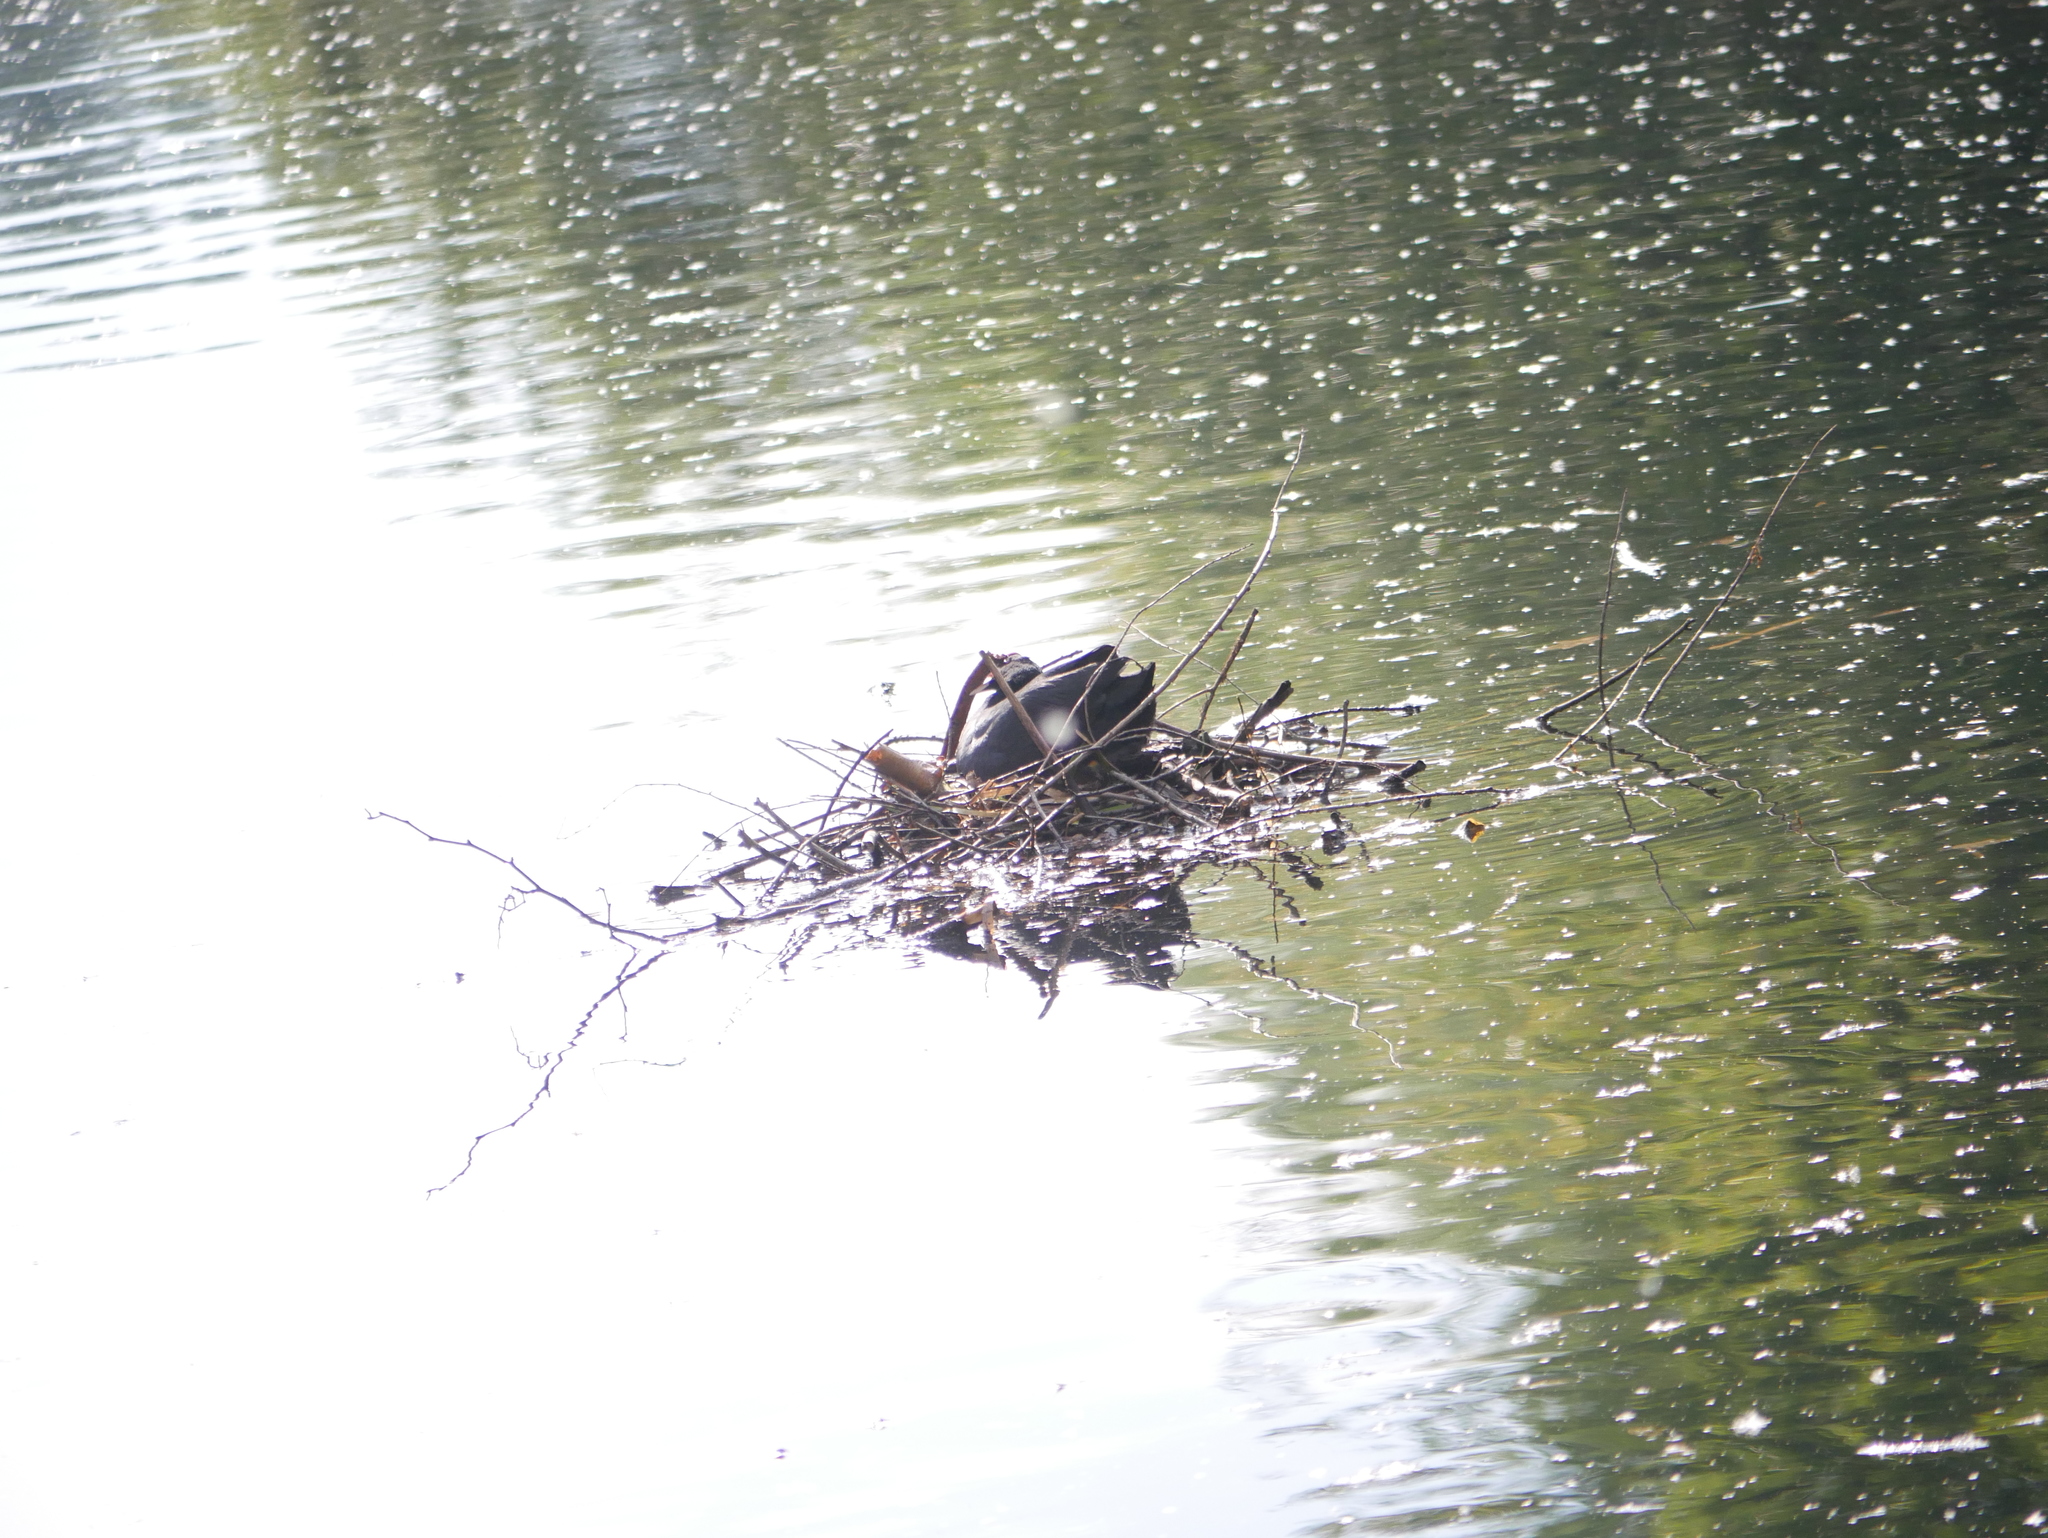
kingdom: Animalia
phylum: Chordata
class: Aves
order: Gruiformes
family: Rallidae
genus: Fulica
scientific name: Fulica atra
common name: Eurasian coot
